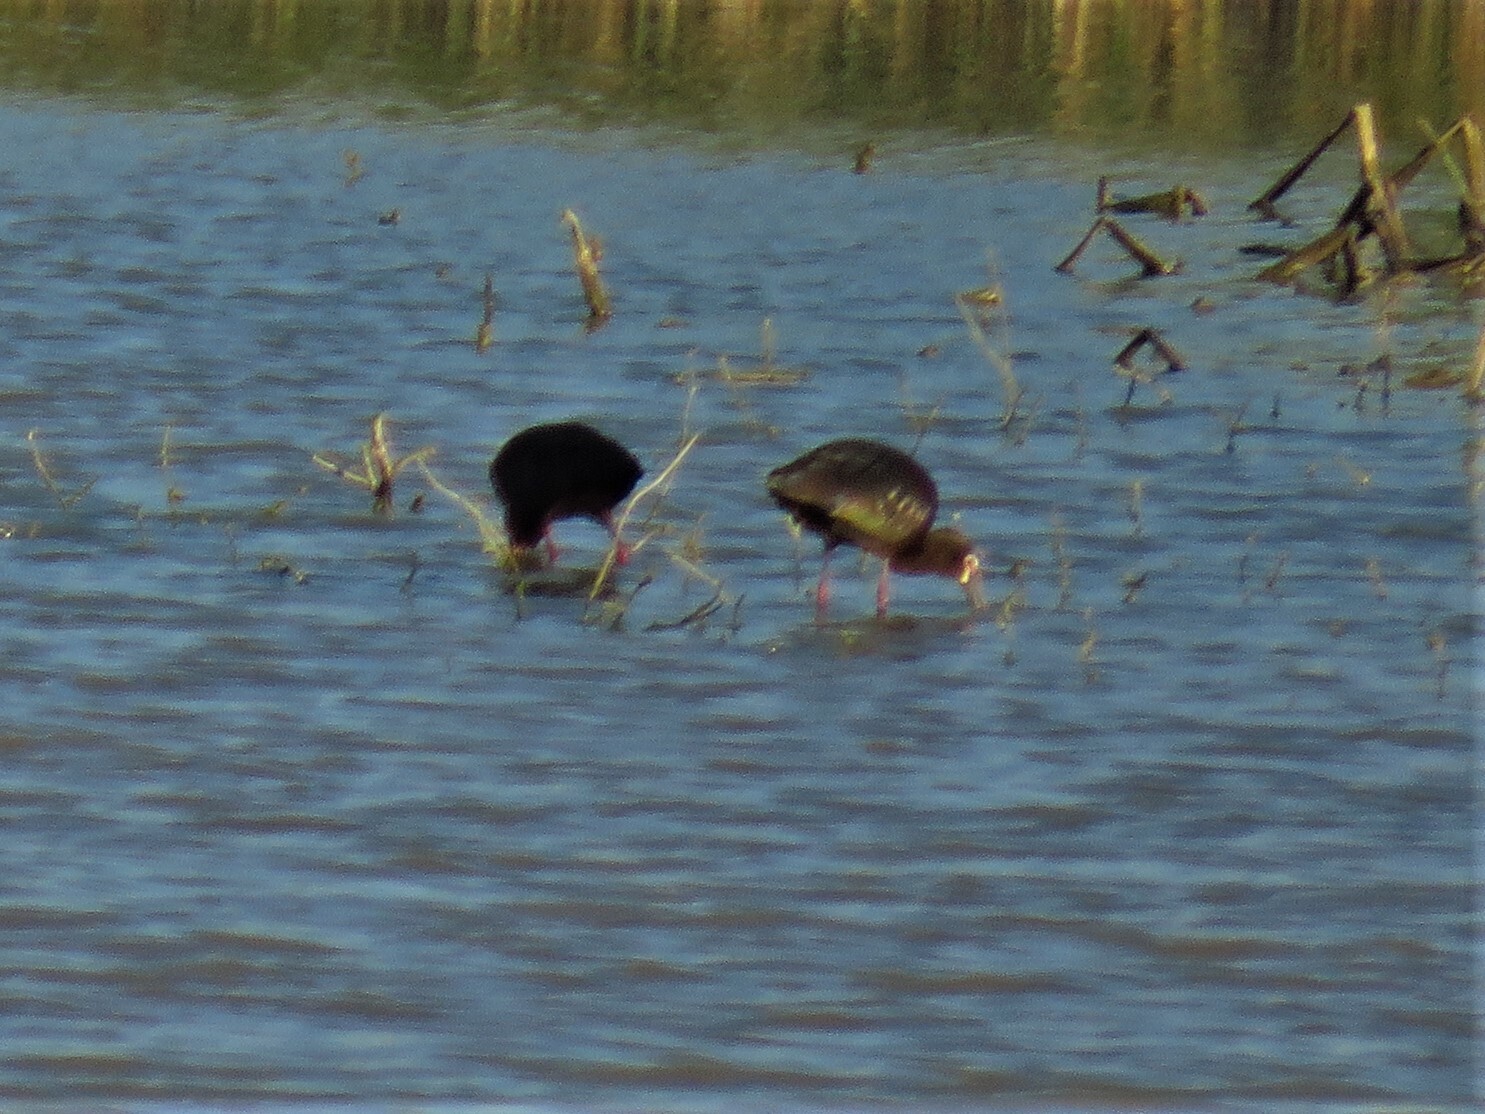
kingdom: Animalia
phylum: Chordata
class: Aves
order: Pelecaniformes
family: Threskiornithidae
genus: Plegadis
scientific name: Plegadis chihi
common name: White-faced ibis
